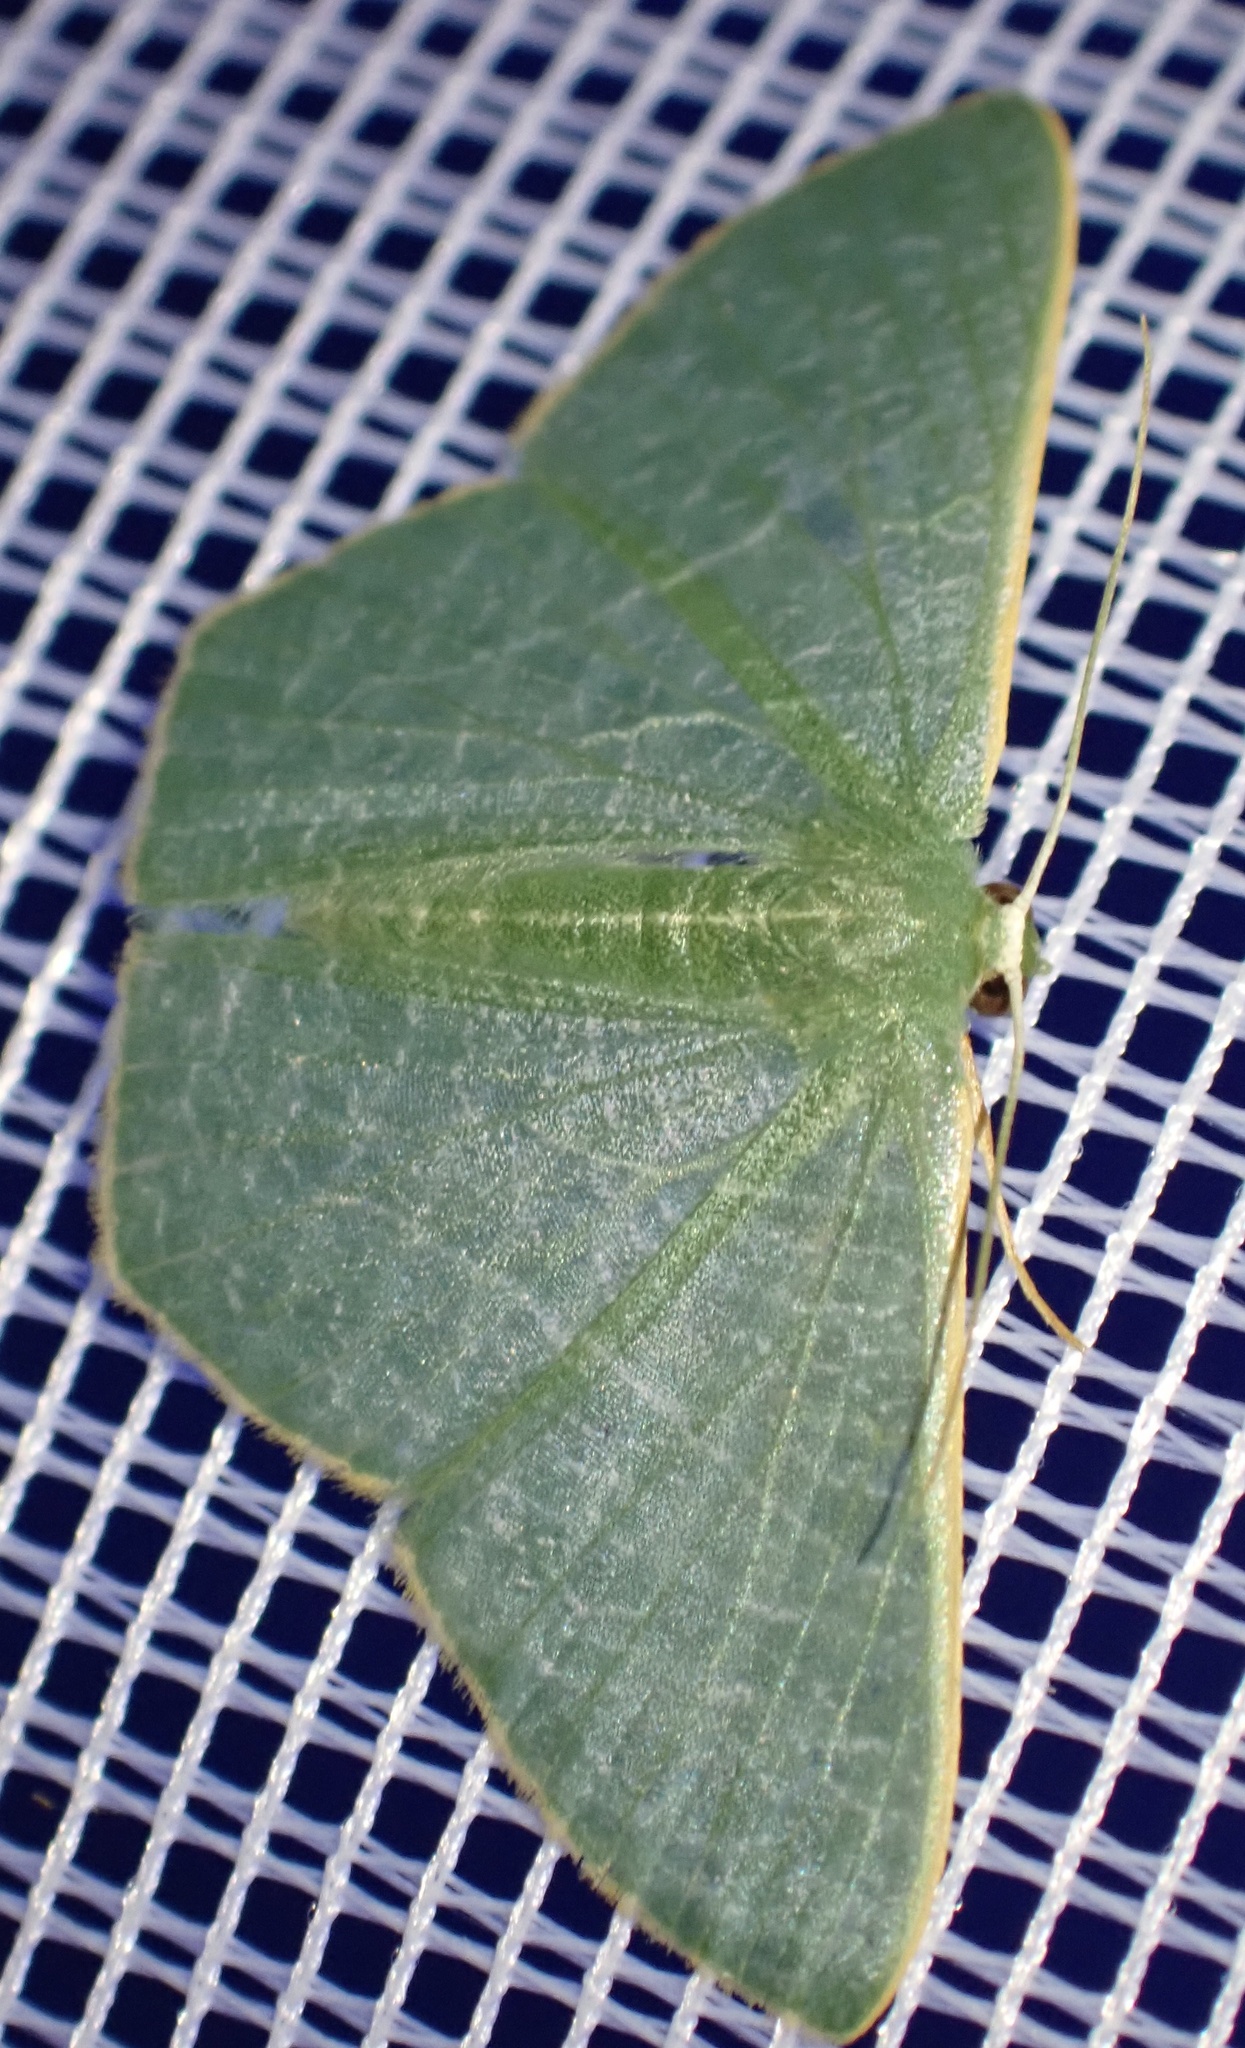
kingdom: Animalia
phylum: Arthropoda
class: Insecta
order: Lepidoptera
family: Geometridae
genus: Thalassodes
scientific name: Thalassodes dorsilinea
